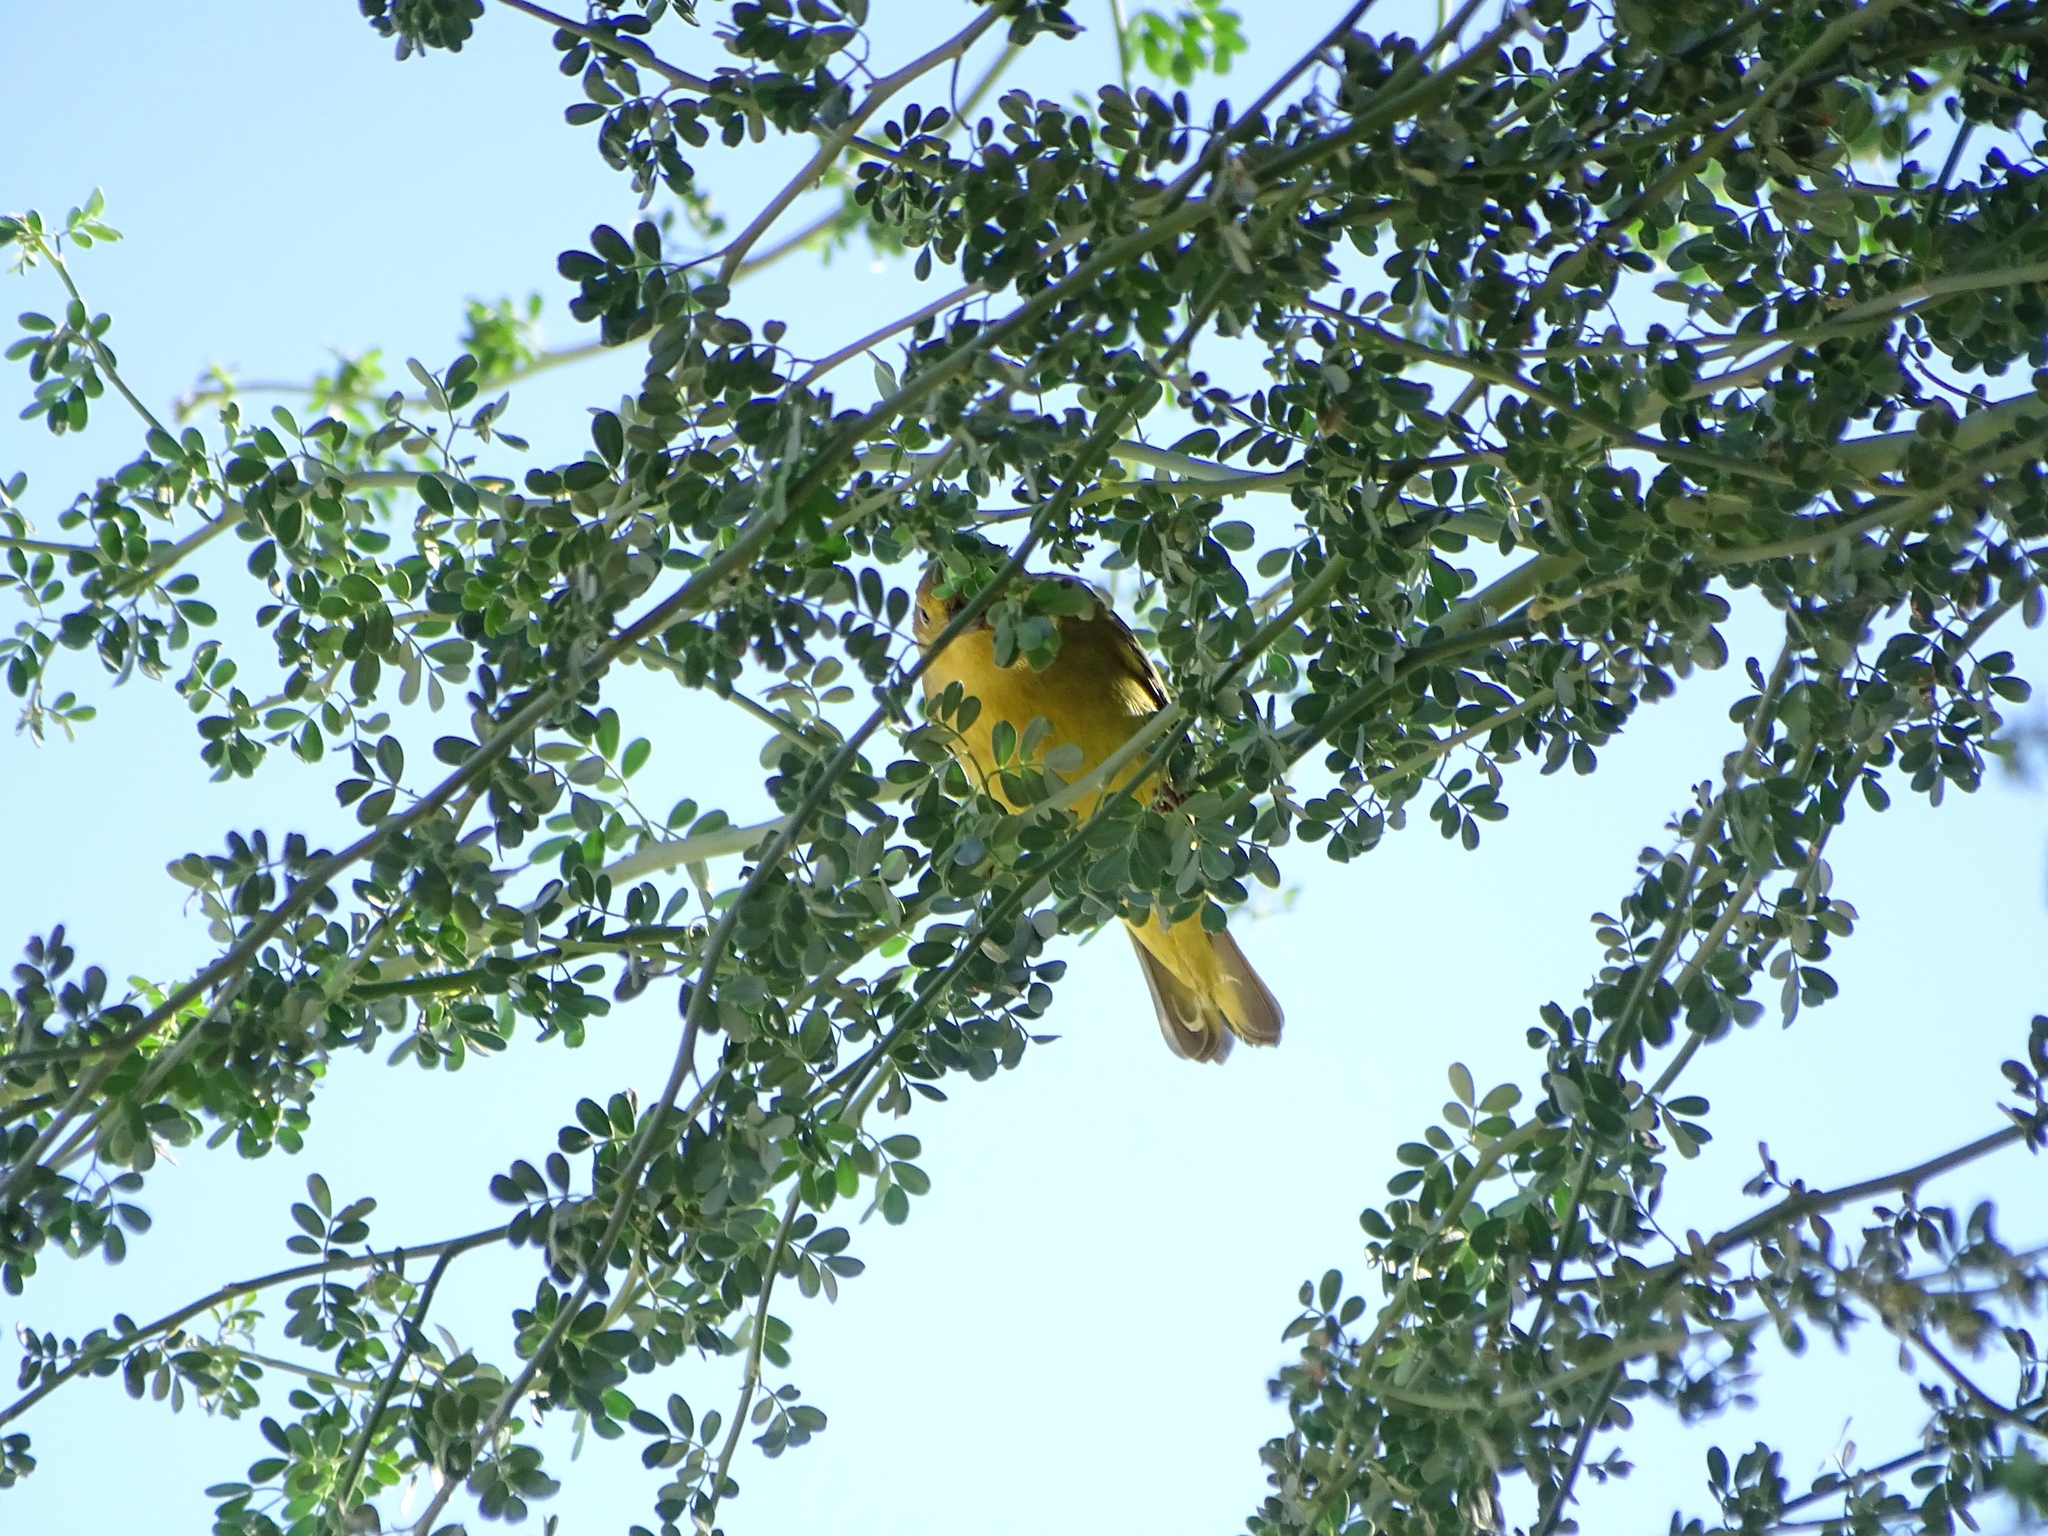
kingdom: Animalia
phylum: Chordata
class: Aves
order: Passeriformes
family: Parulidae
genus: Setophaga
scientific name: Setophaga petechia
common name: Yellow warbler
